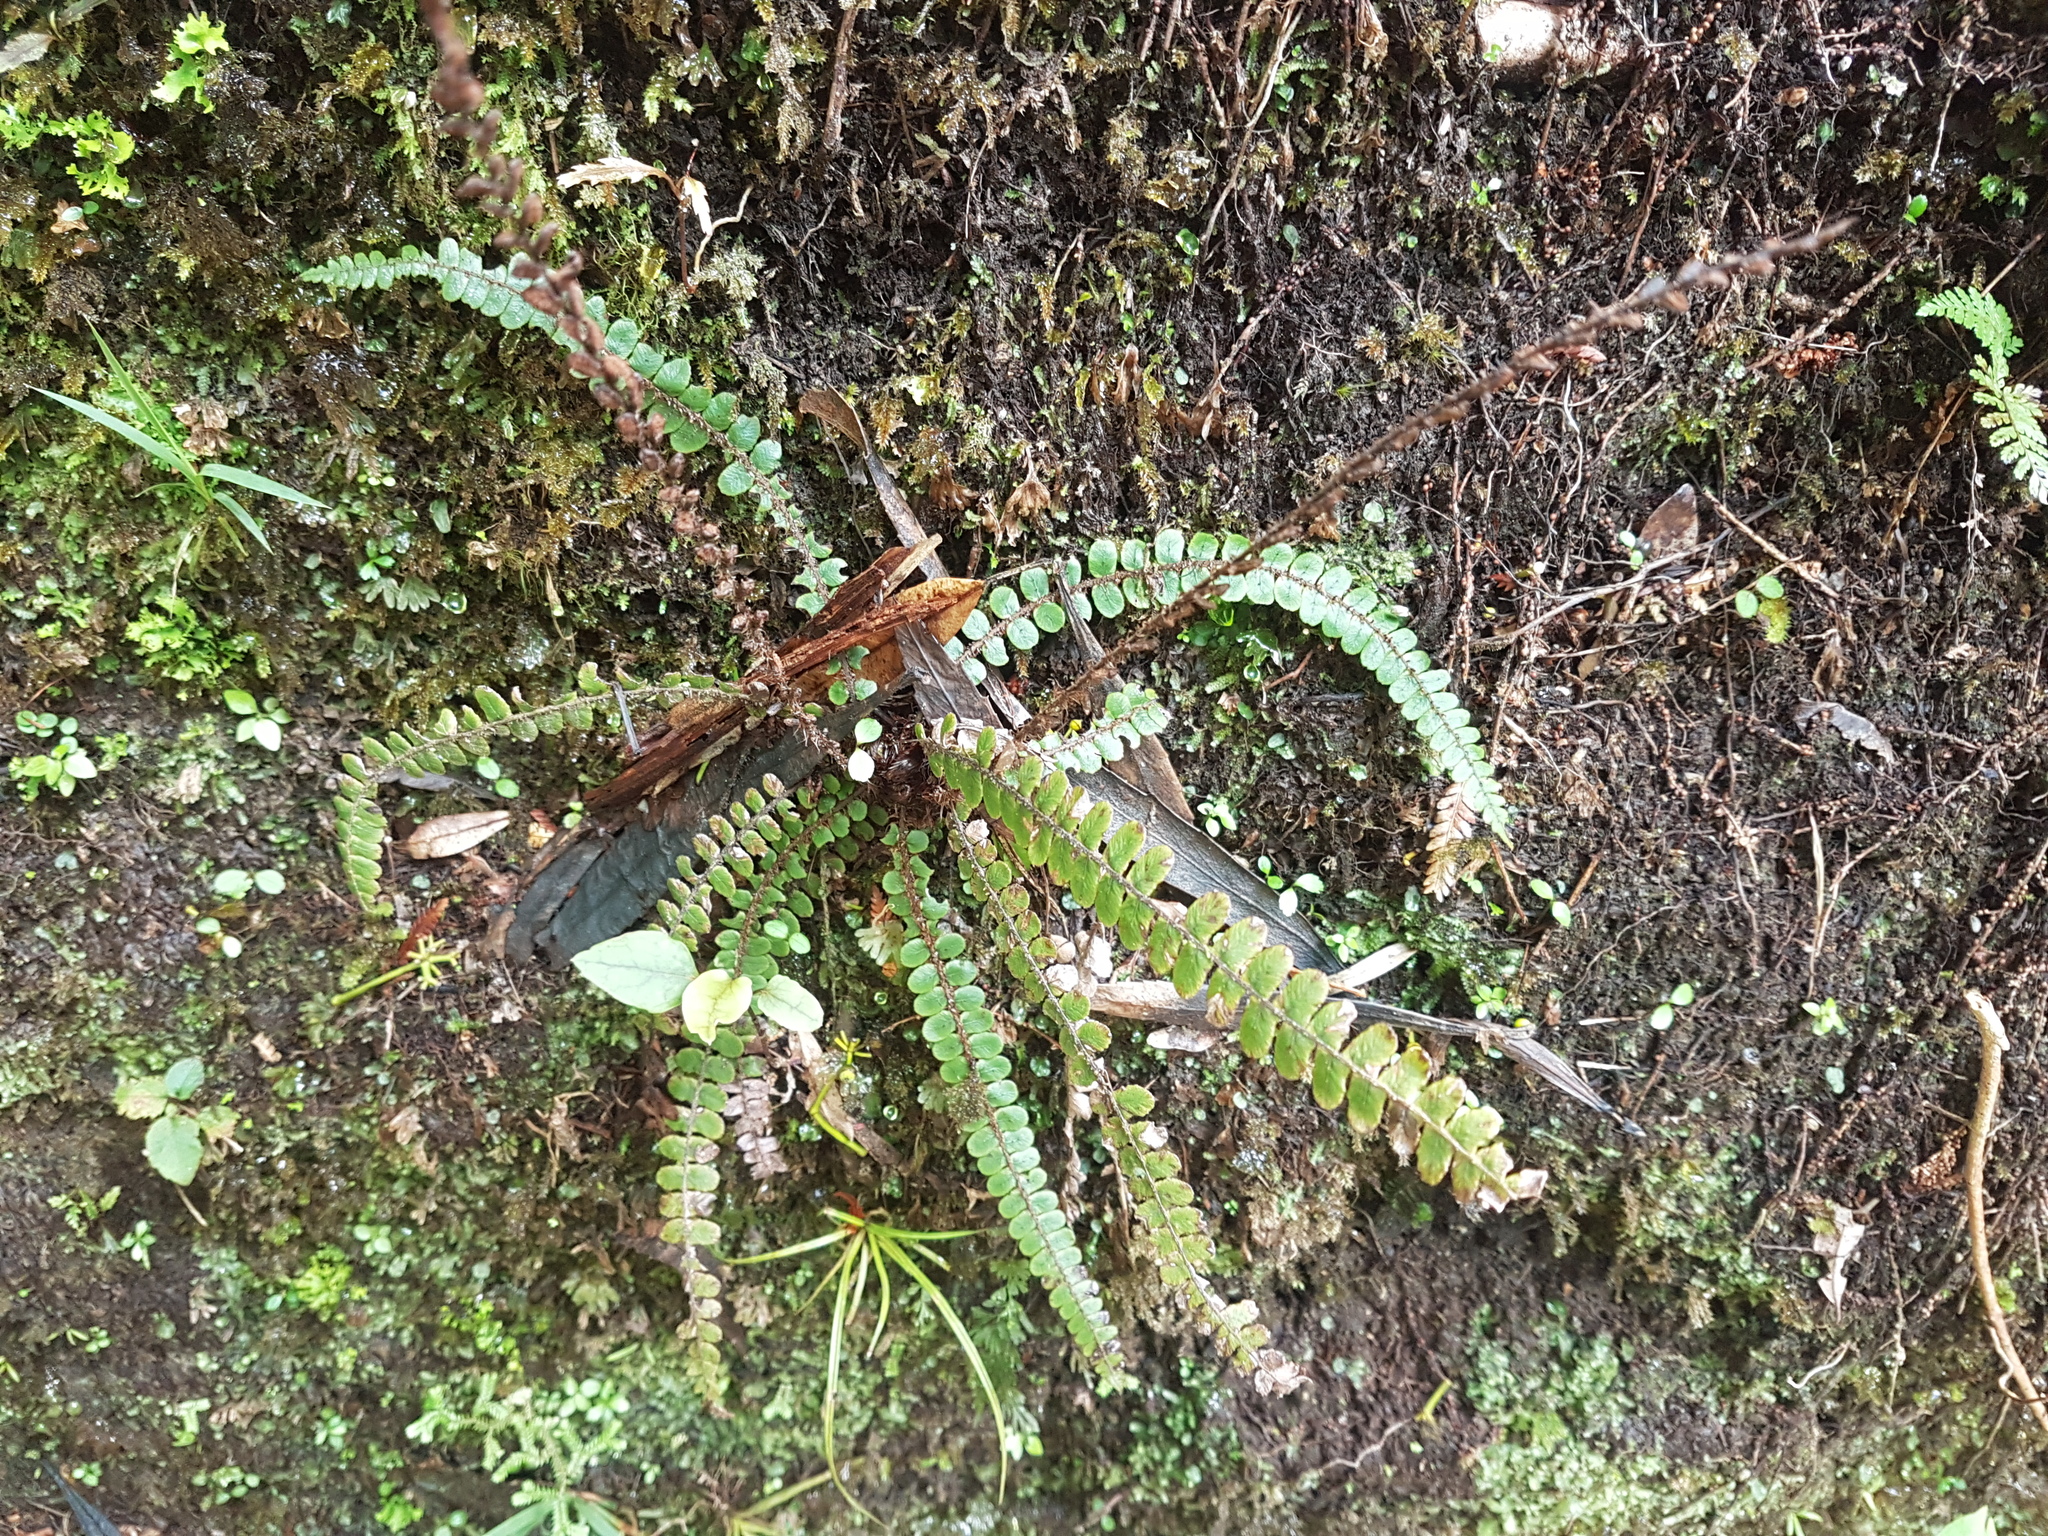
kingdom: Plantae
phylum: Tracheophyta
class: Polypodiopsida
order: Polypodiales
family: Blechnaceae
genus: Cranfillia
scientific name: Cranfillia fluviatilis
